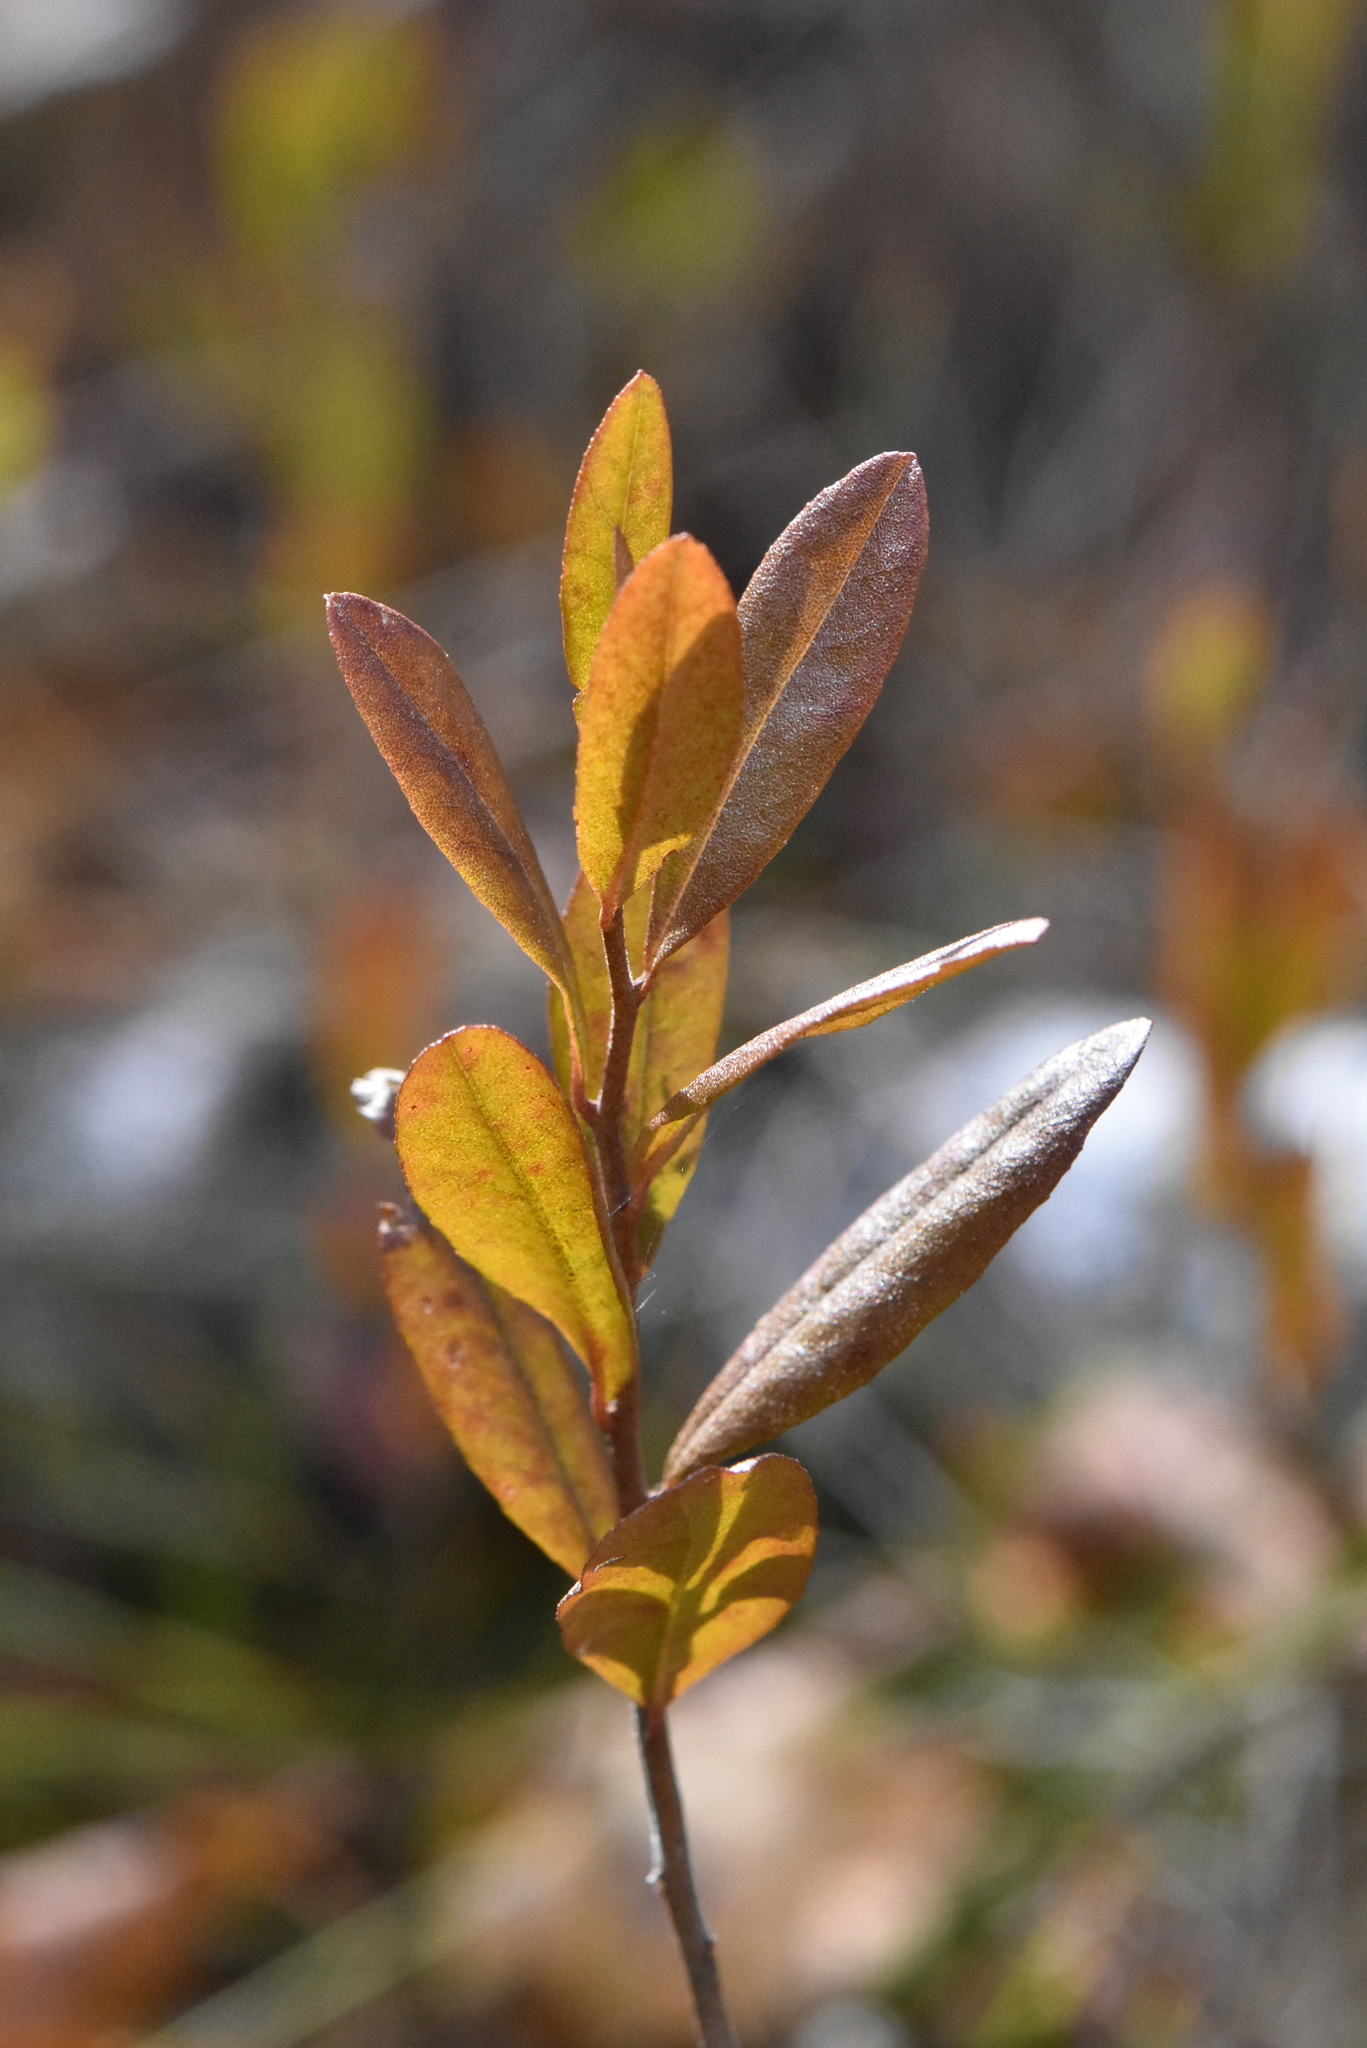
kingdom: Plantae
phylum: Tracheophyta
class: Magnoliopsida
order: Ericales
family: Ericaceae
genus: Chamaedaphne
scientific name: Chamaedaphne calyculata
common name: Leatherleaf
